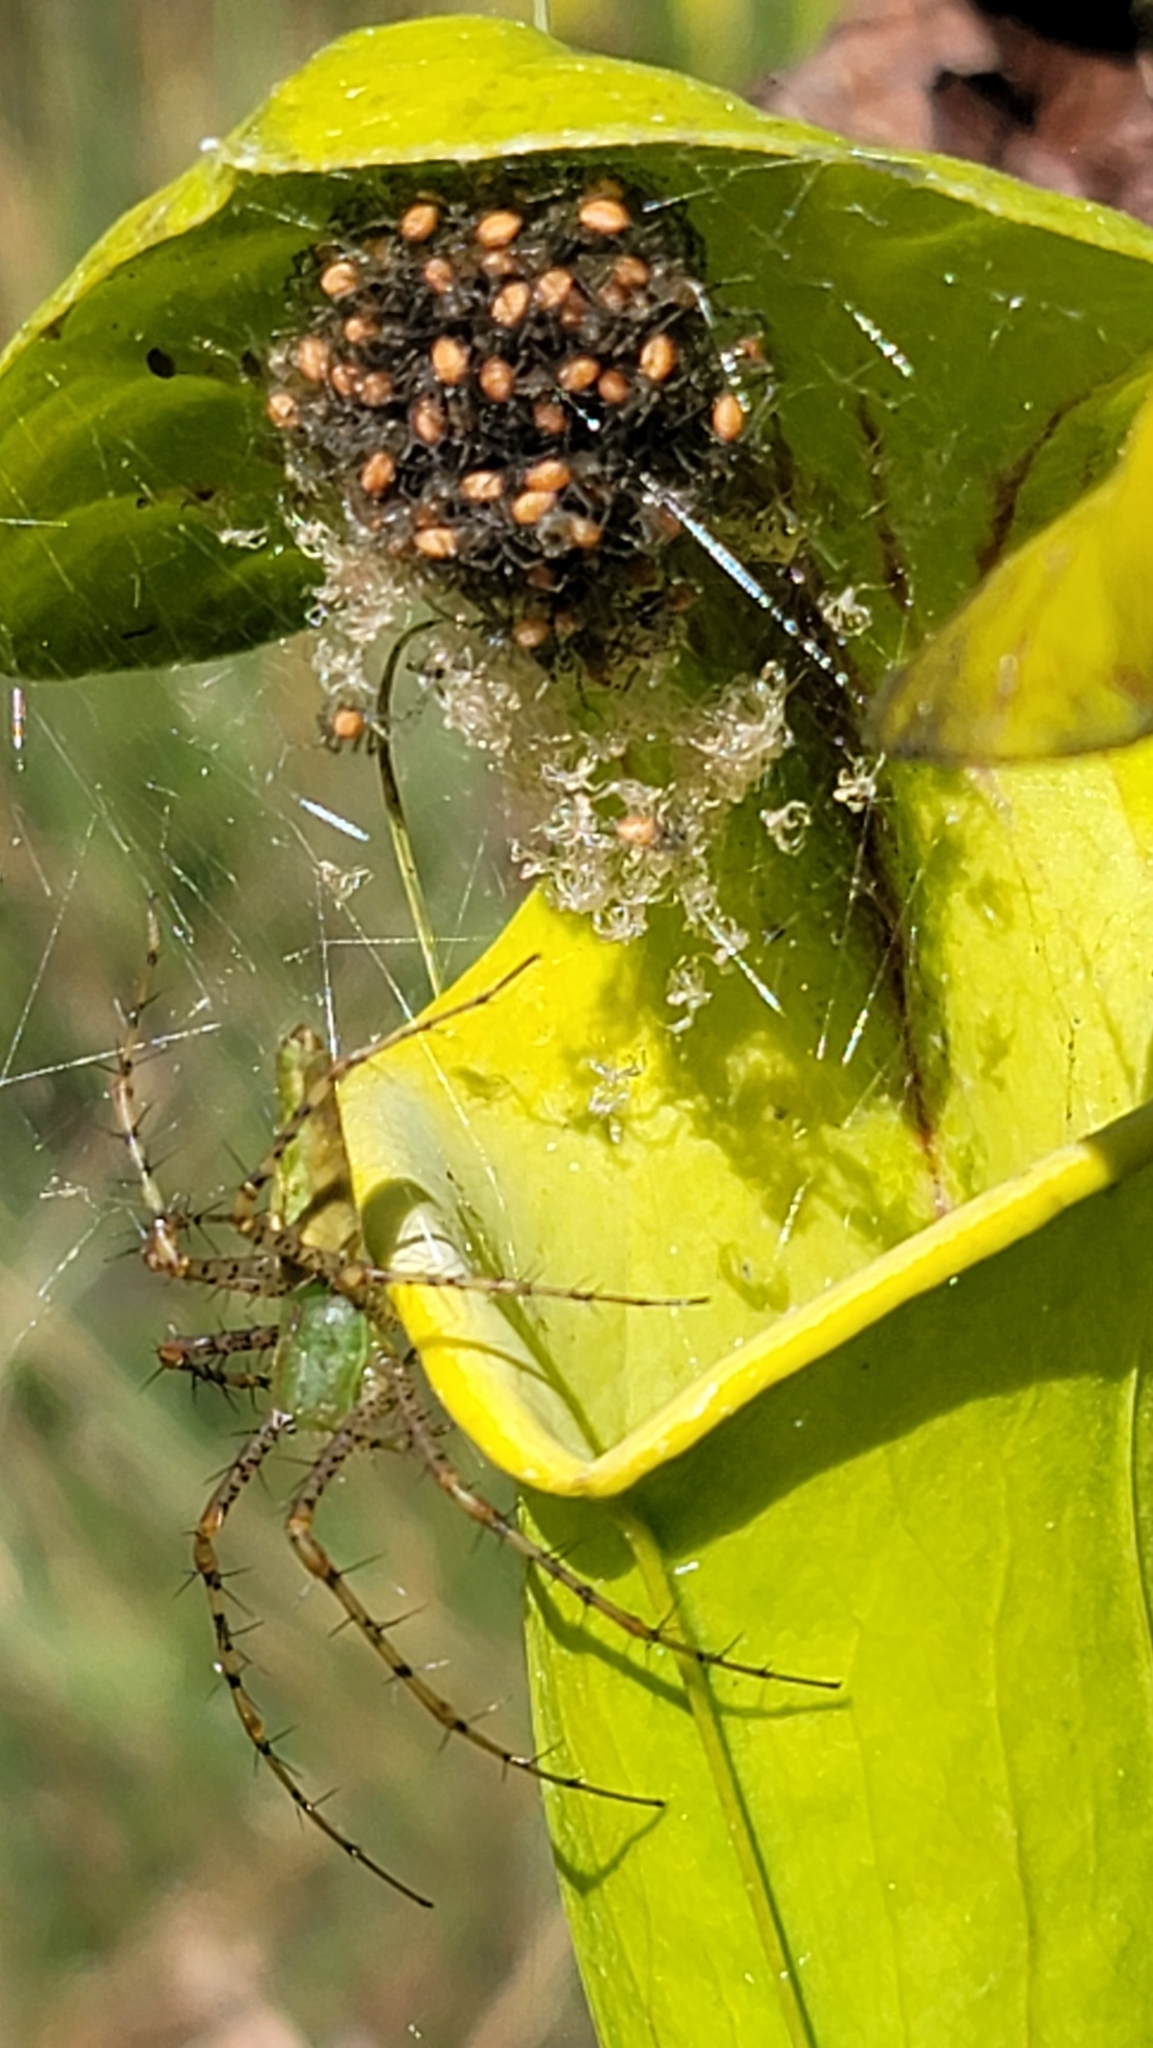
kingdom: Animalia
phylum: Arthropoda
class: Arachnida
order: Araneae
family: Oxyopidae
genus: Peucetia
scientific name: Peucetia viridans
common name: Lynx spiders
